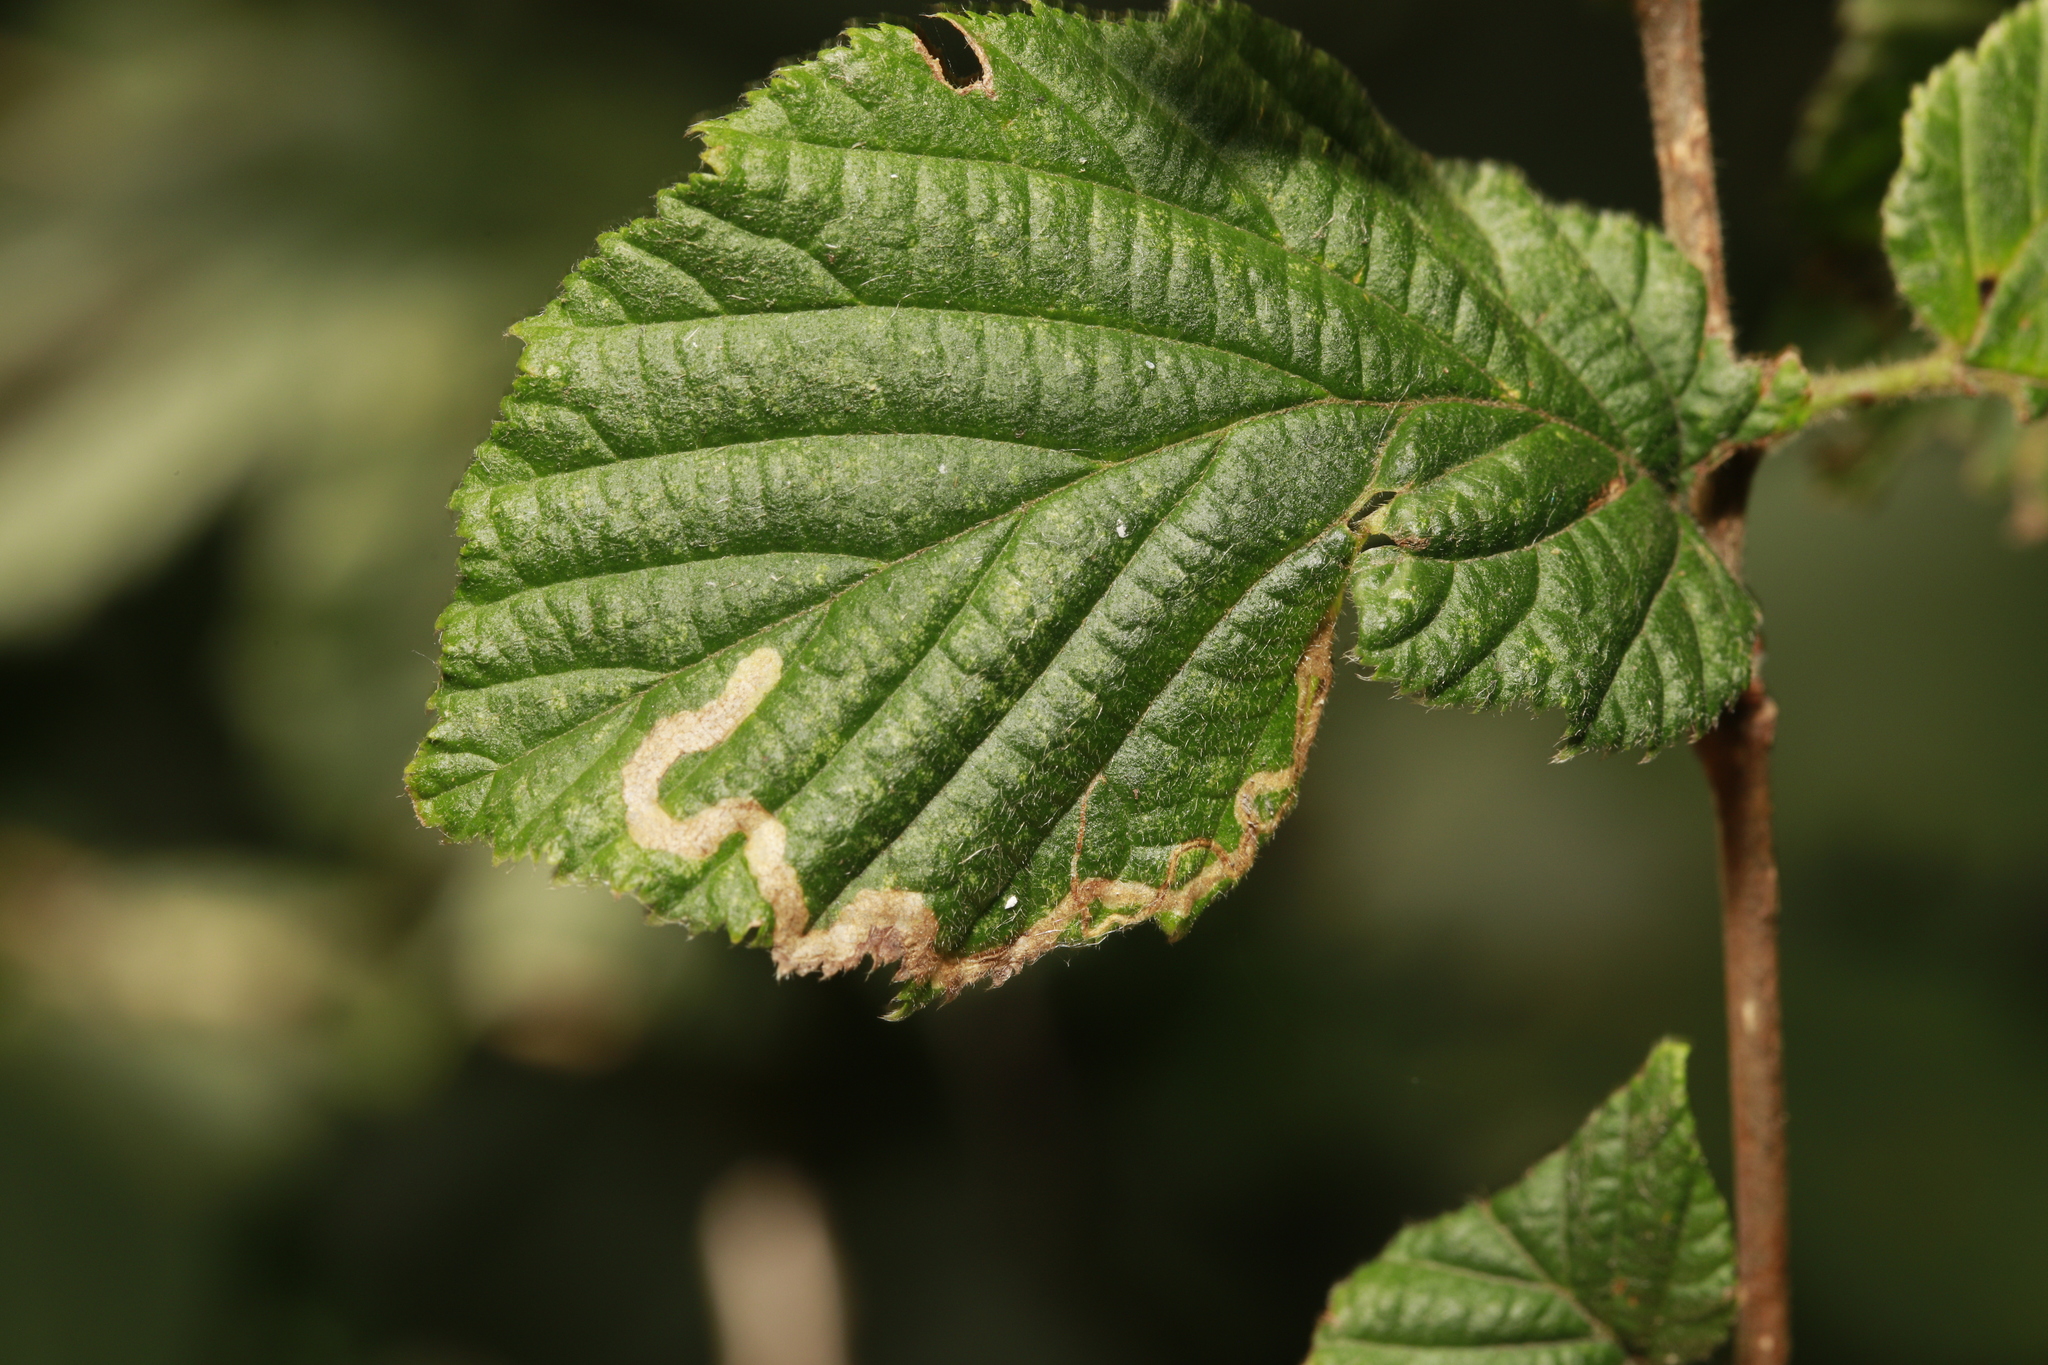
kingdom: Animalia
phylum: Arthropoda
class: Insecta
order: Lepidoptera
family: Nepticulidae
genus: Stigmella
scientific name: Stigmella microtheriella
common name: Nut-tree pigmy
